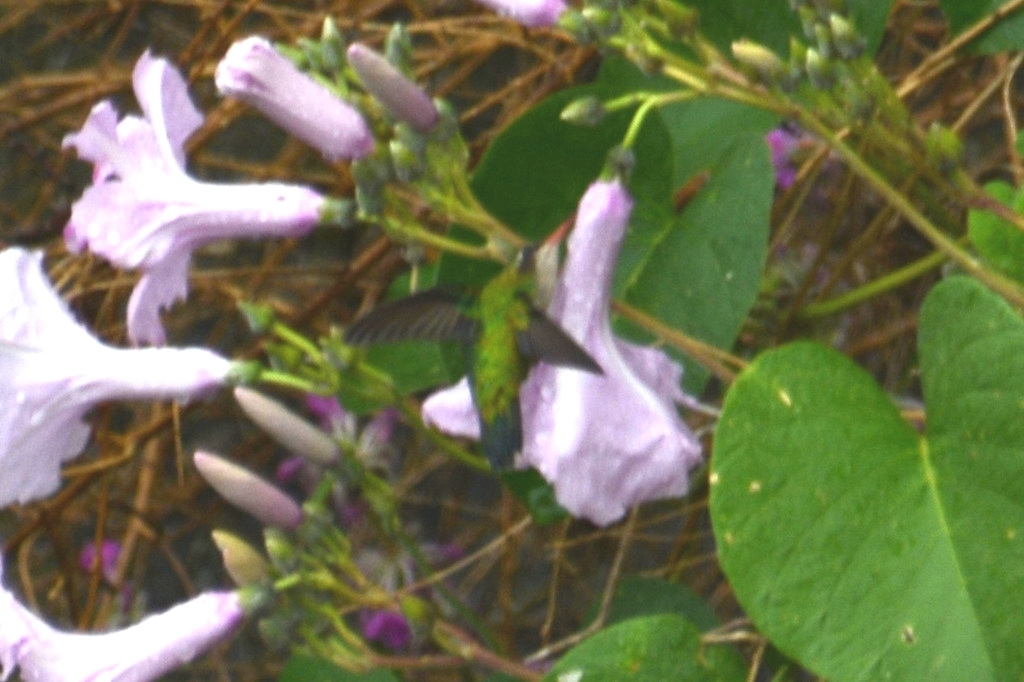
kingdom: Animalia
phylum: Chordata
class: Aves
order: Apodiformes
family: Trochilidae
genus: Chlorostilbon
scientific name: Chlorostilbon lucidus
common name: Glittering-bellied emerald
